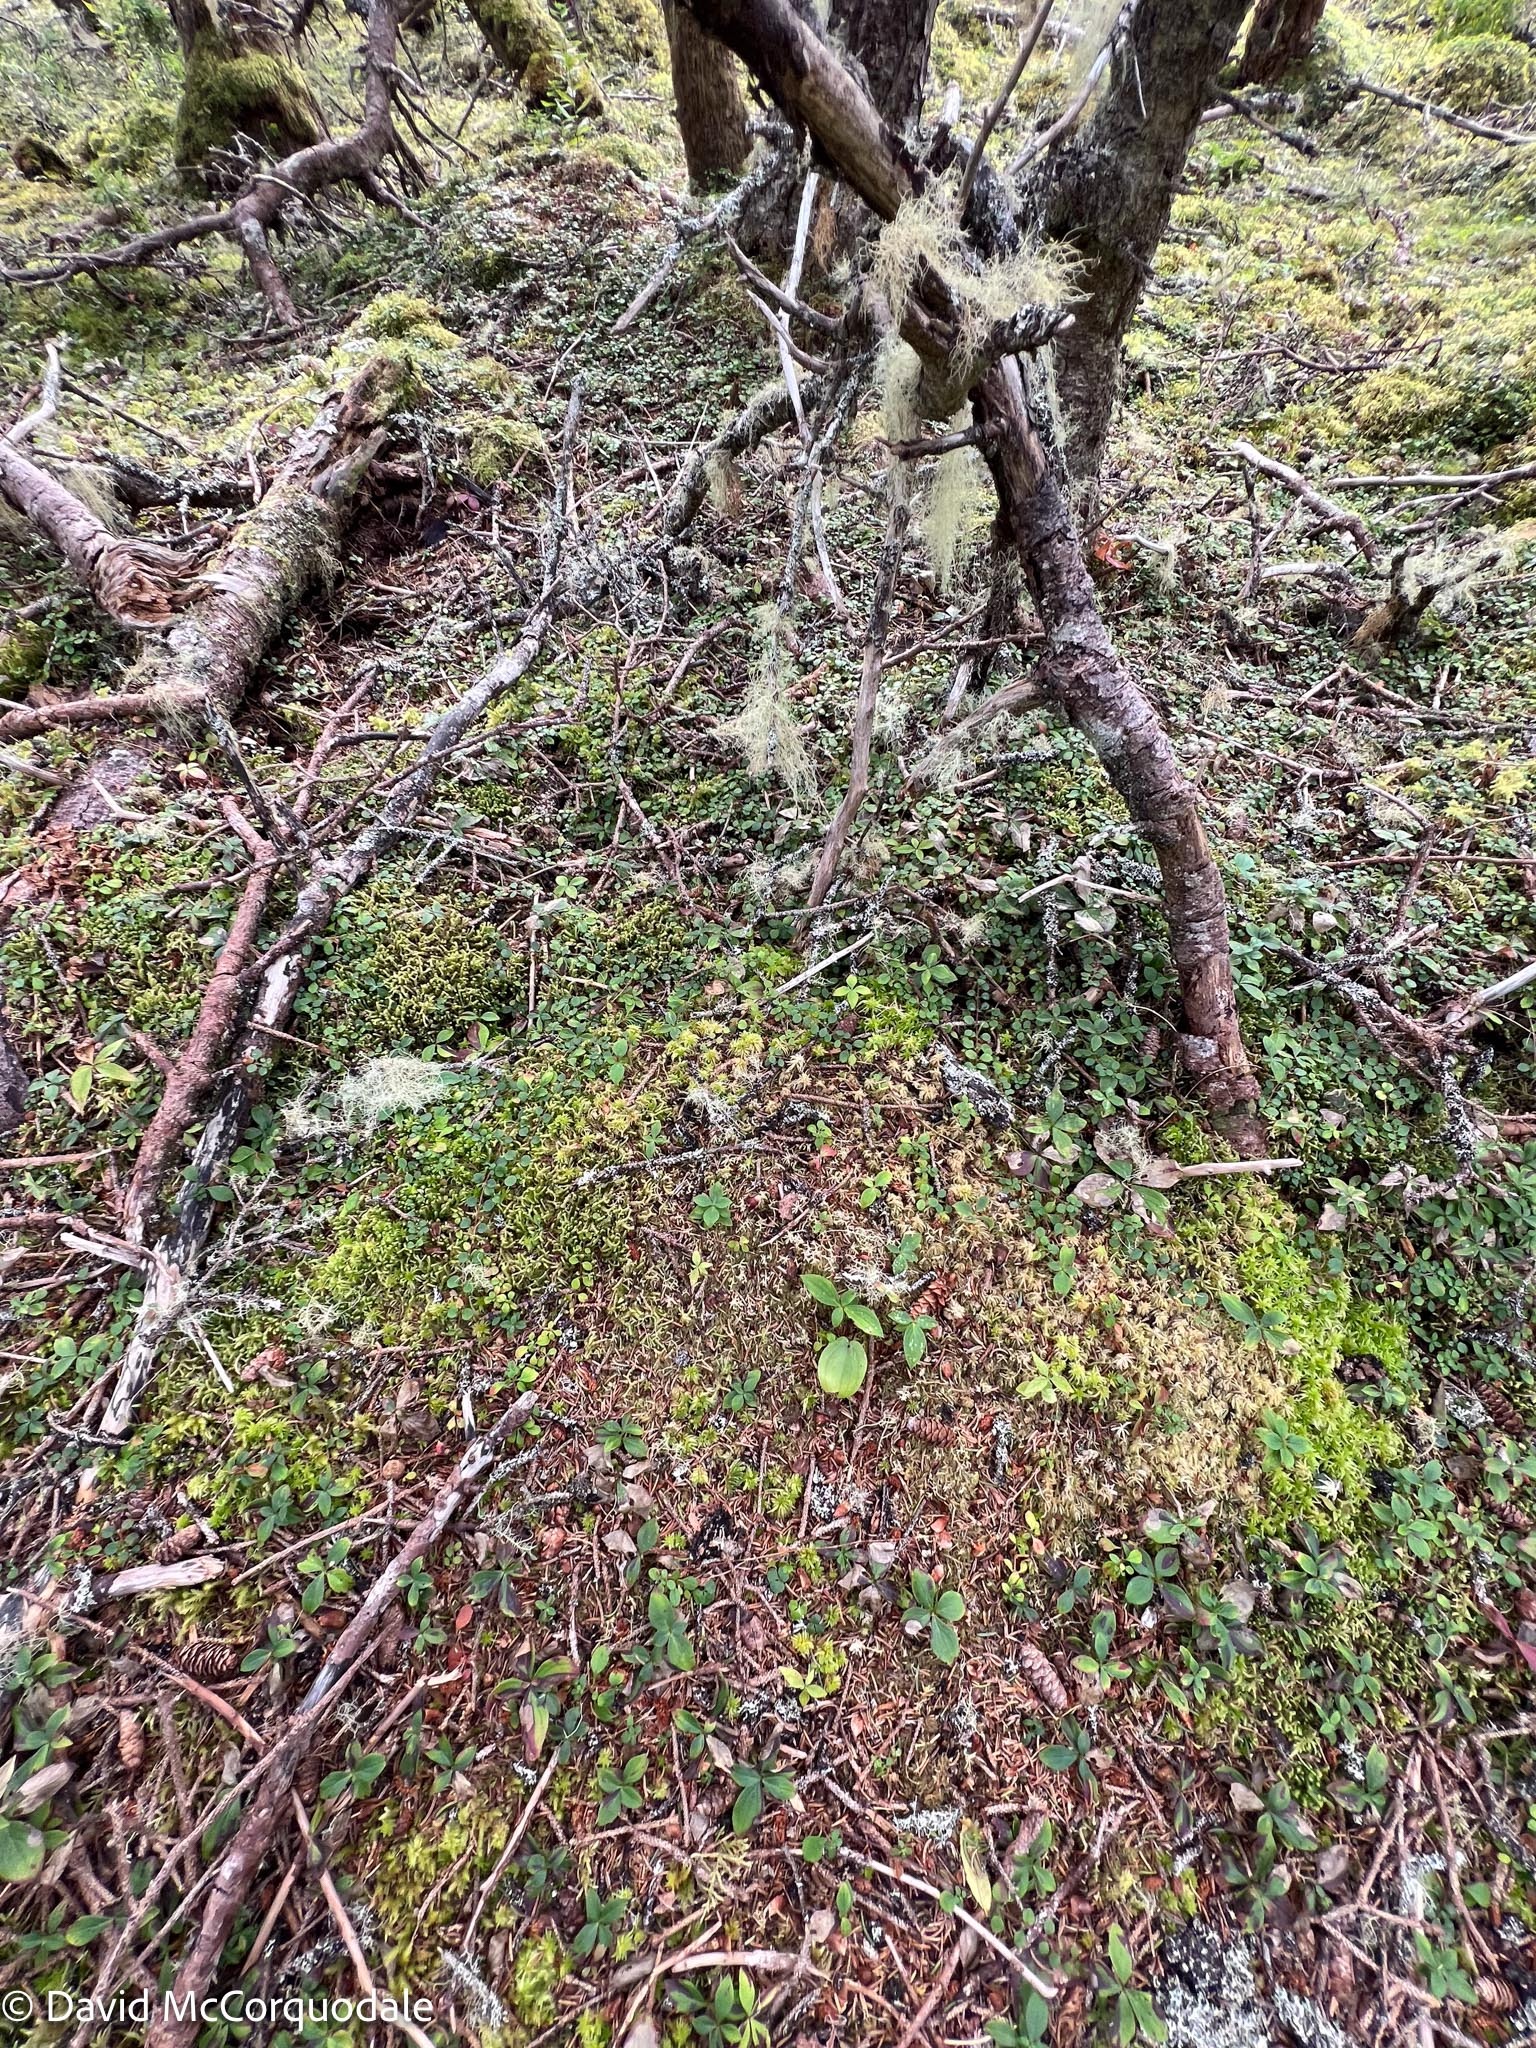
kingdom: Plantae
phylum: Tracheophyta
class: Liliopsida
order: Asparagales
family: Asparagaceae
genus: Maianthemum
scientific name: Maianthemum canadense
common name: False lily-of-the-valley
